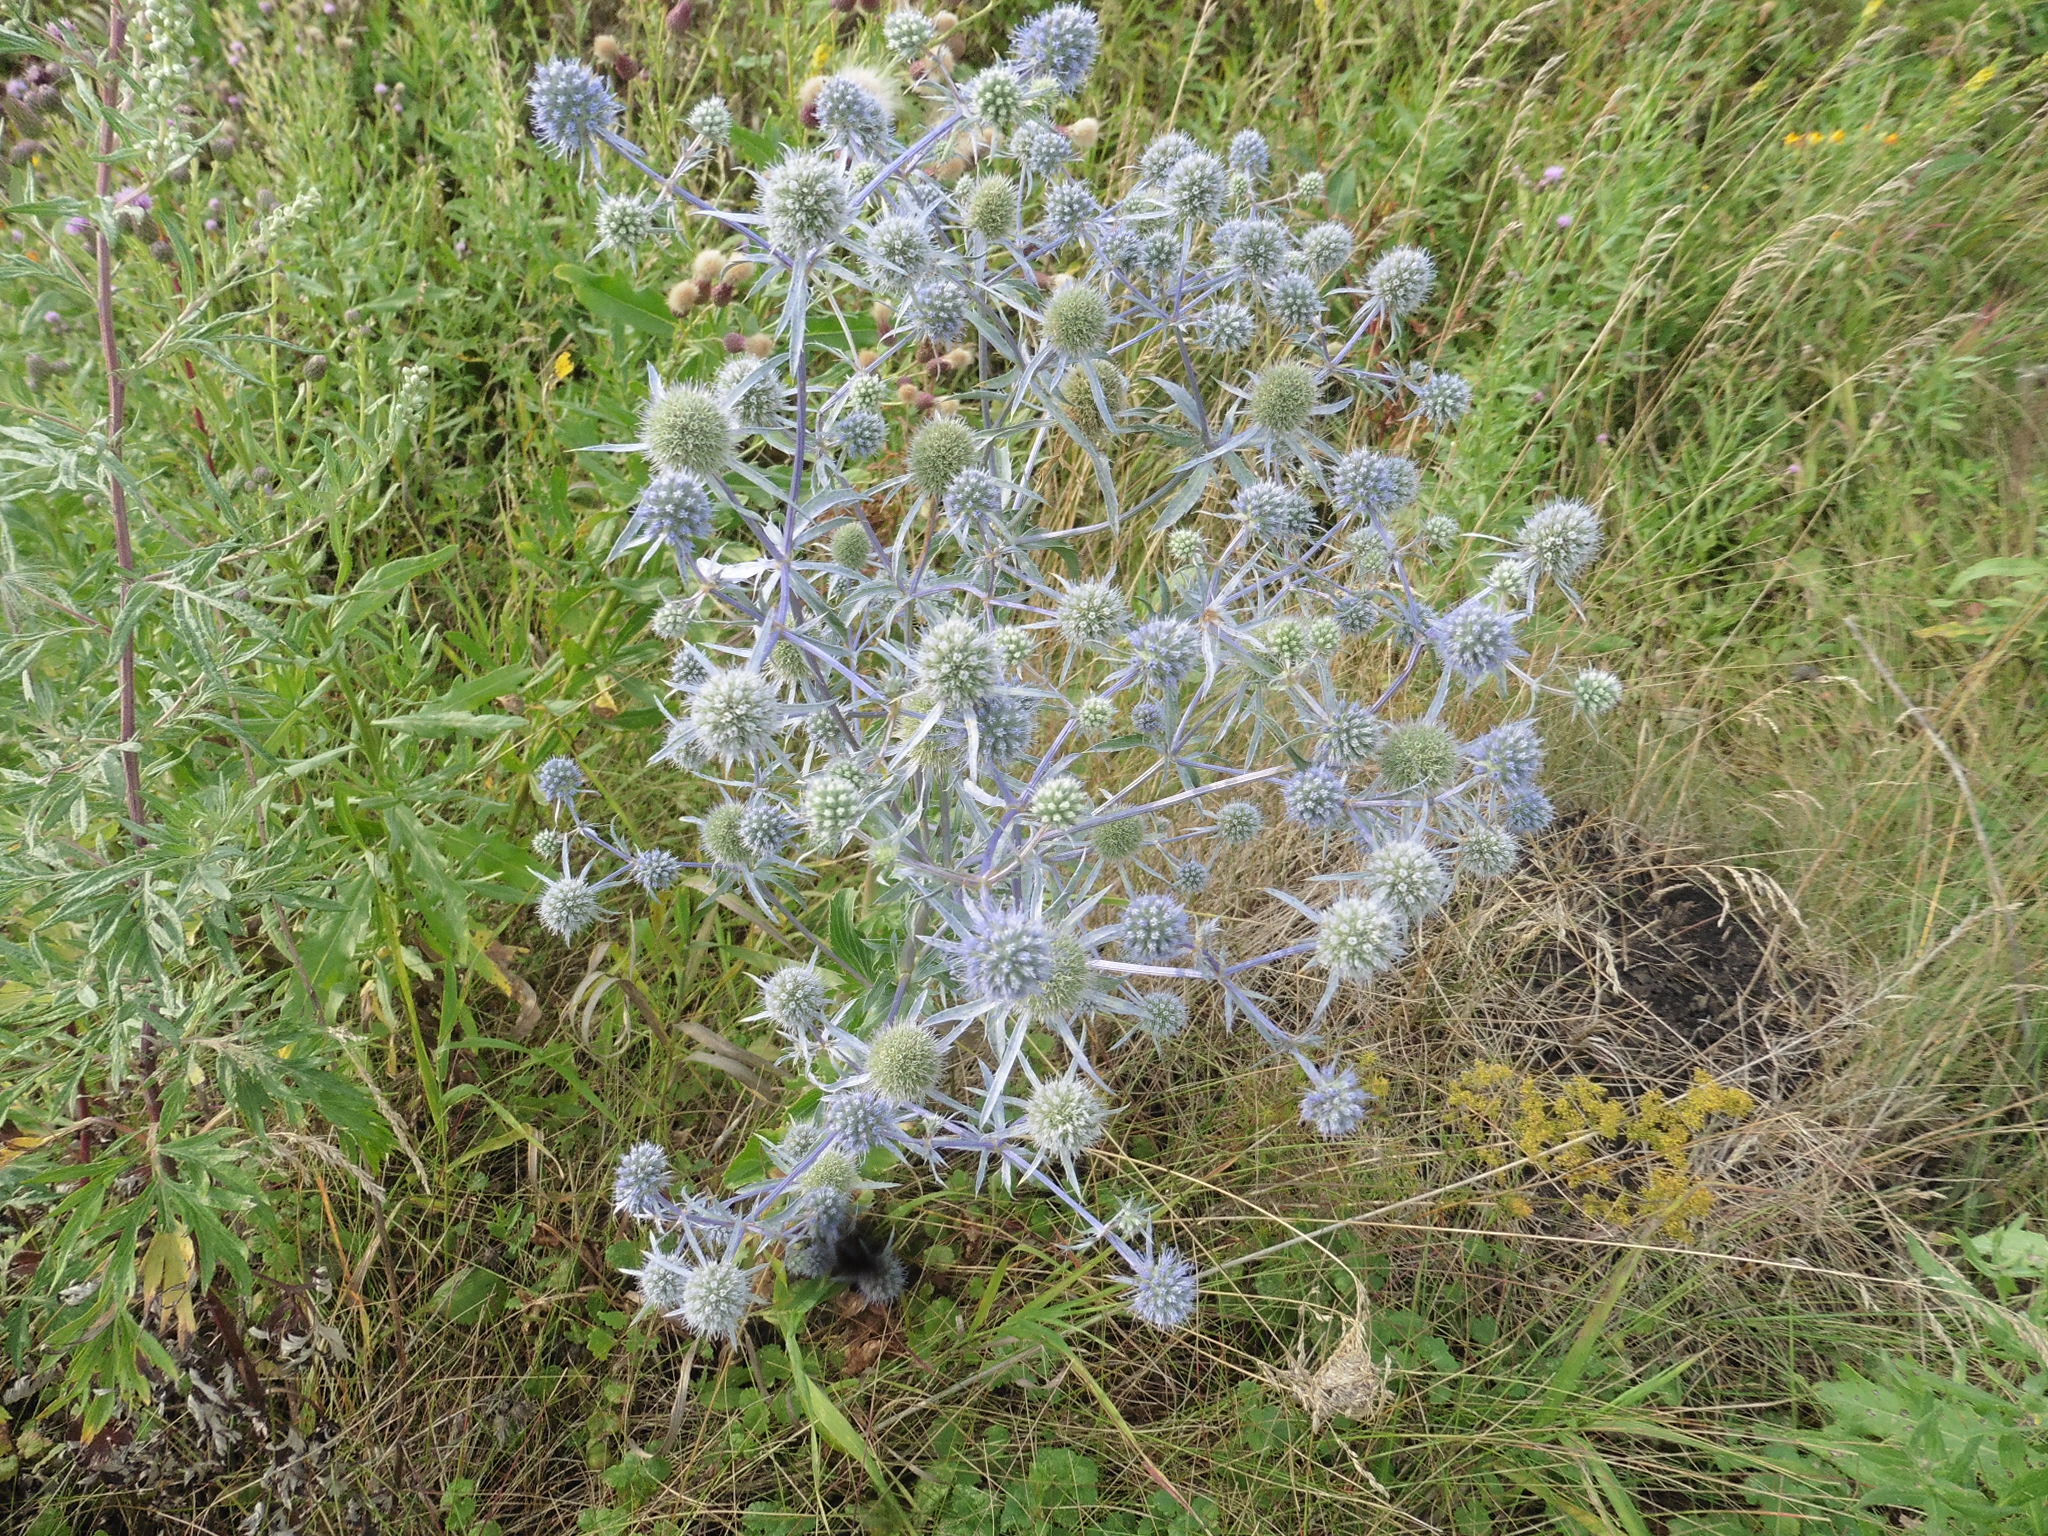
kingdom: Plantae
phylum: Tracheophyta
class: Magnoliopsida
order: Apiales
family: Apiaceae
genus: Eryngium
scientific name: Eryngium planum
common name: Blue eryngo
